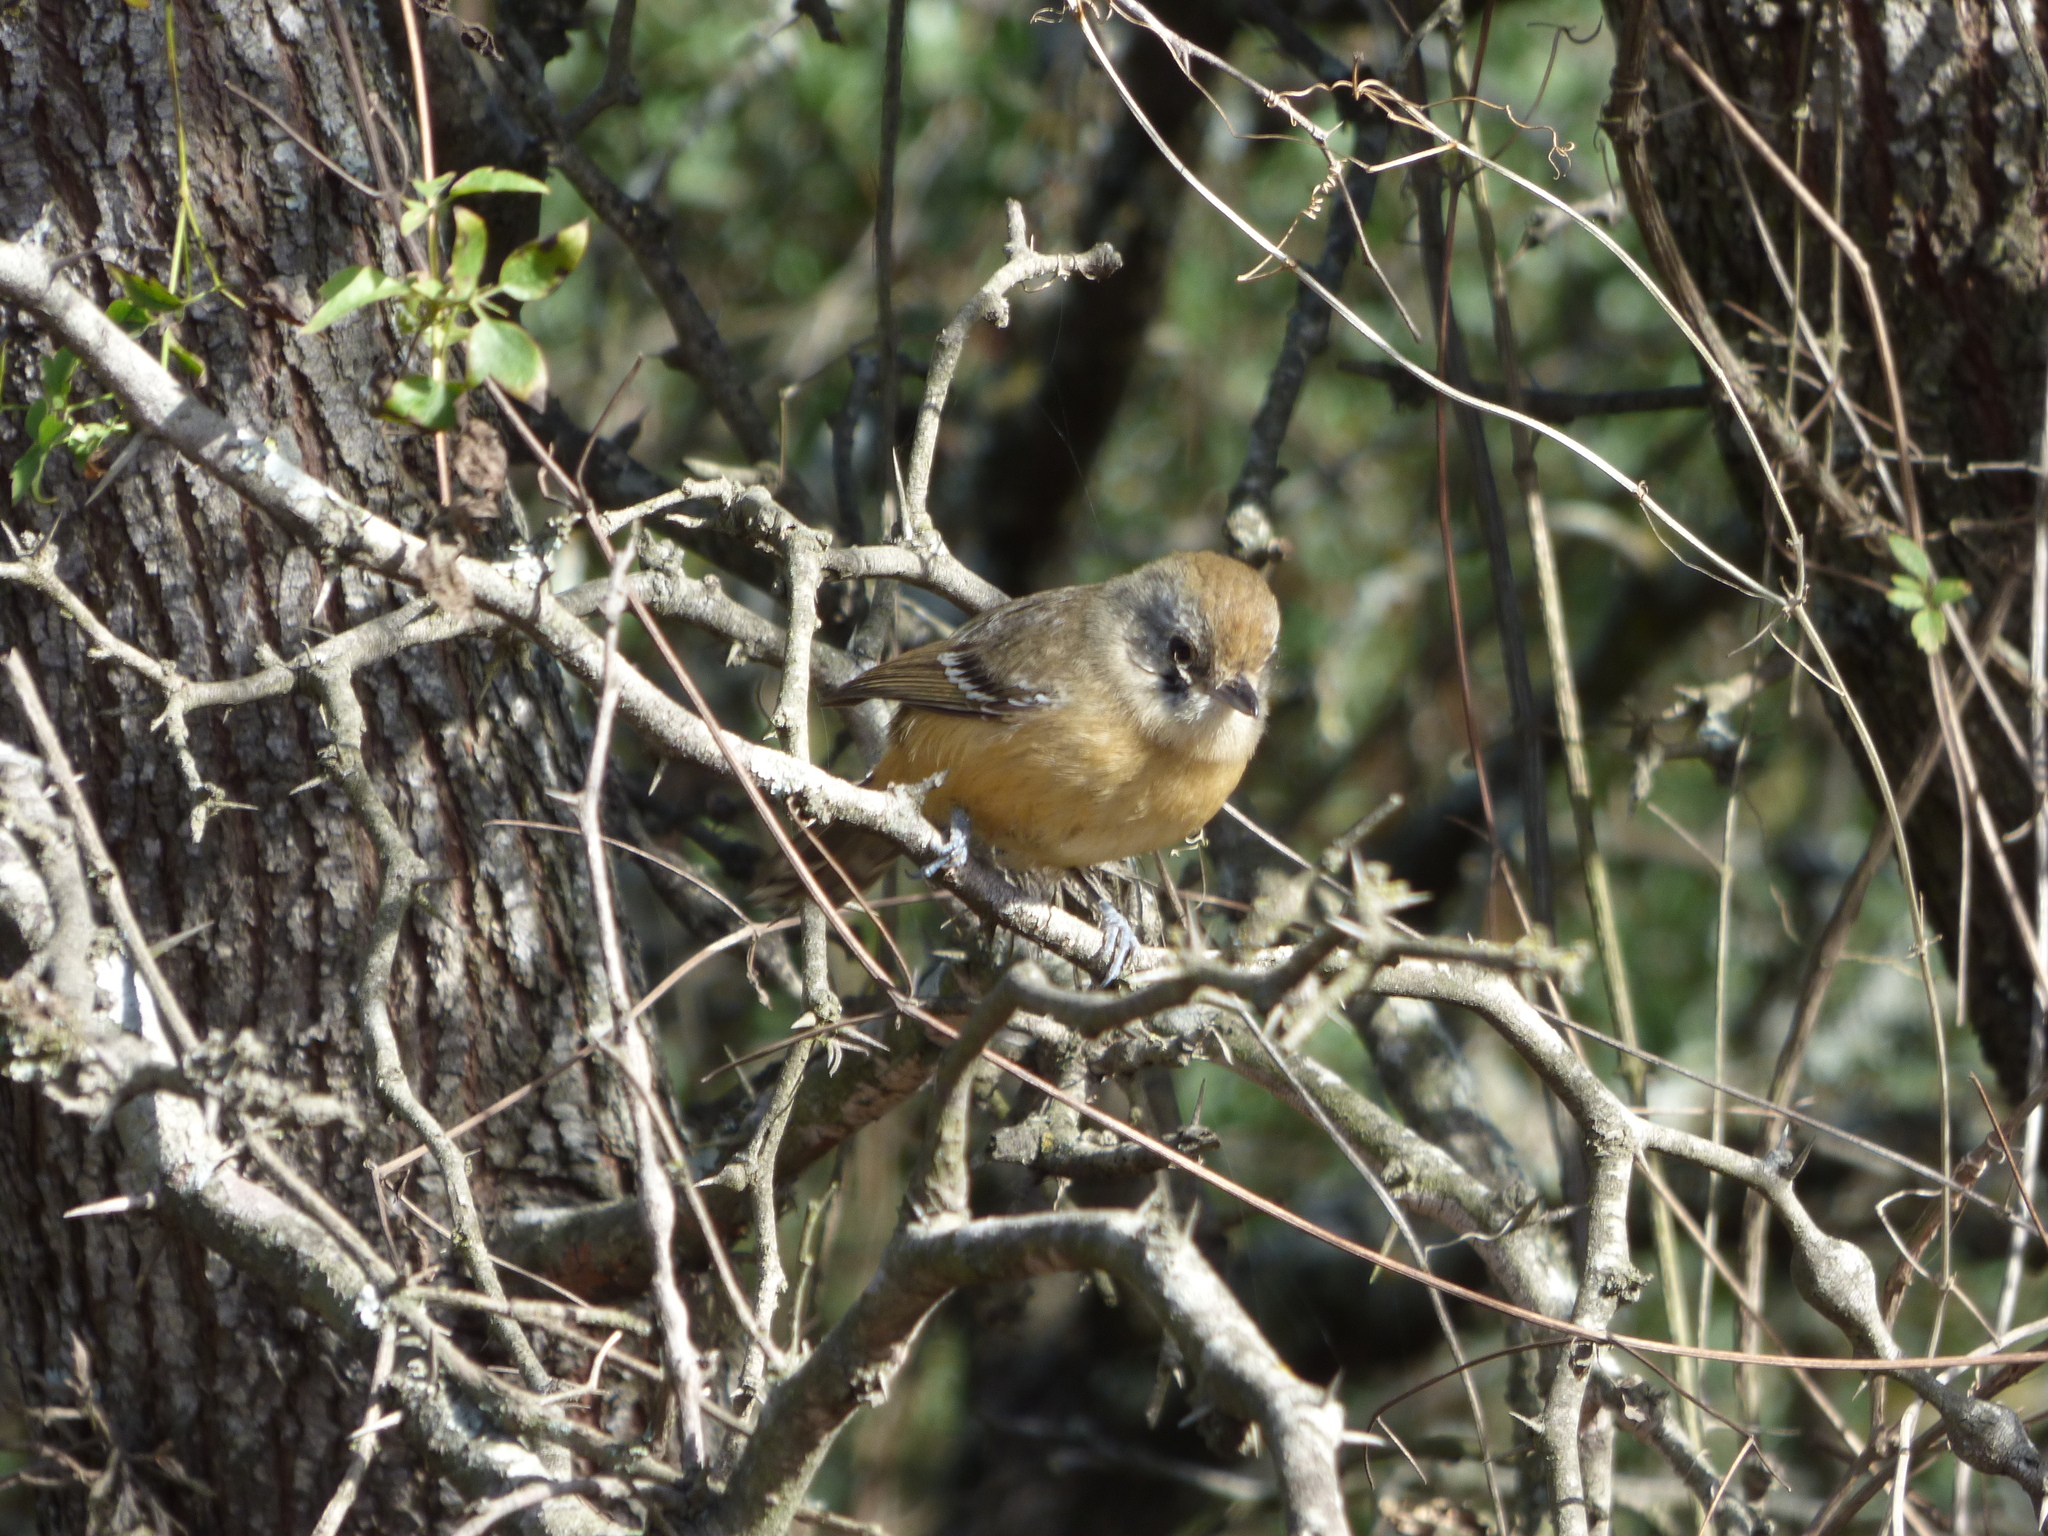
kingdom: Animalia
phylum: Chordata
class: Aves
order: Passeriformes
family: Thamnophilidae
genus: Thamnophilus
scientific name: Thamnophilus caerulescens
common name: Variable antshrike
